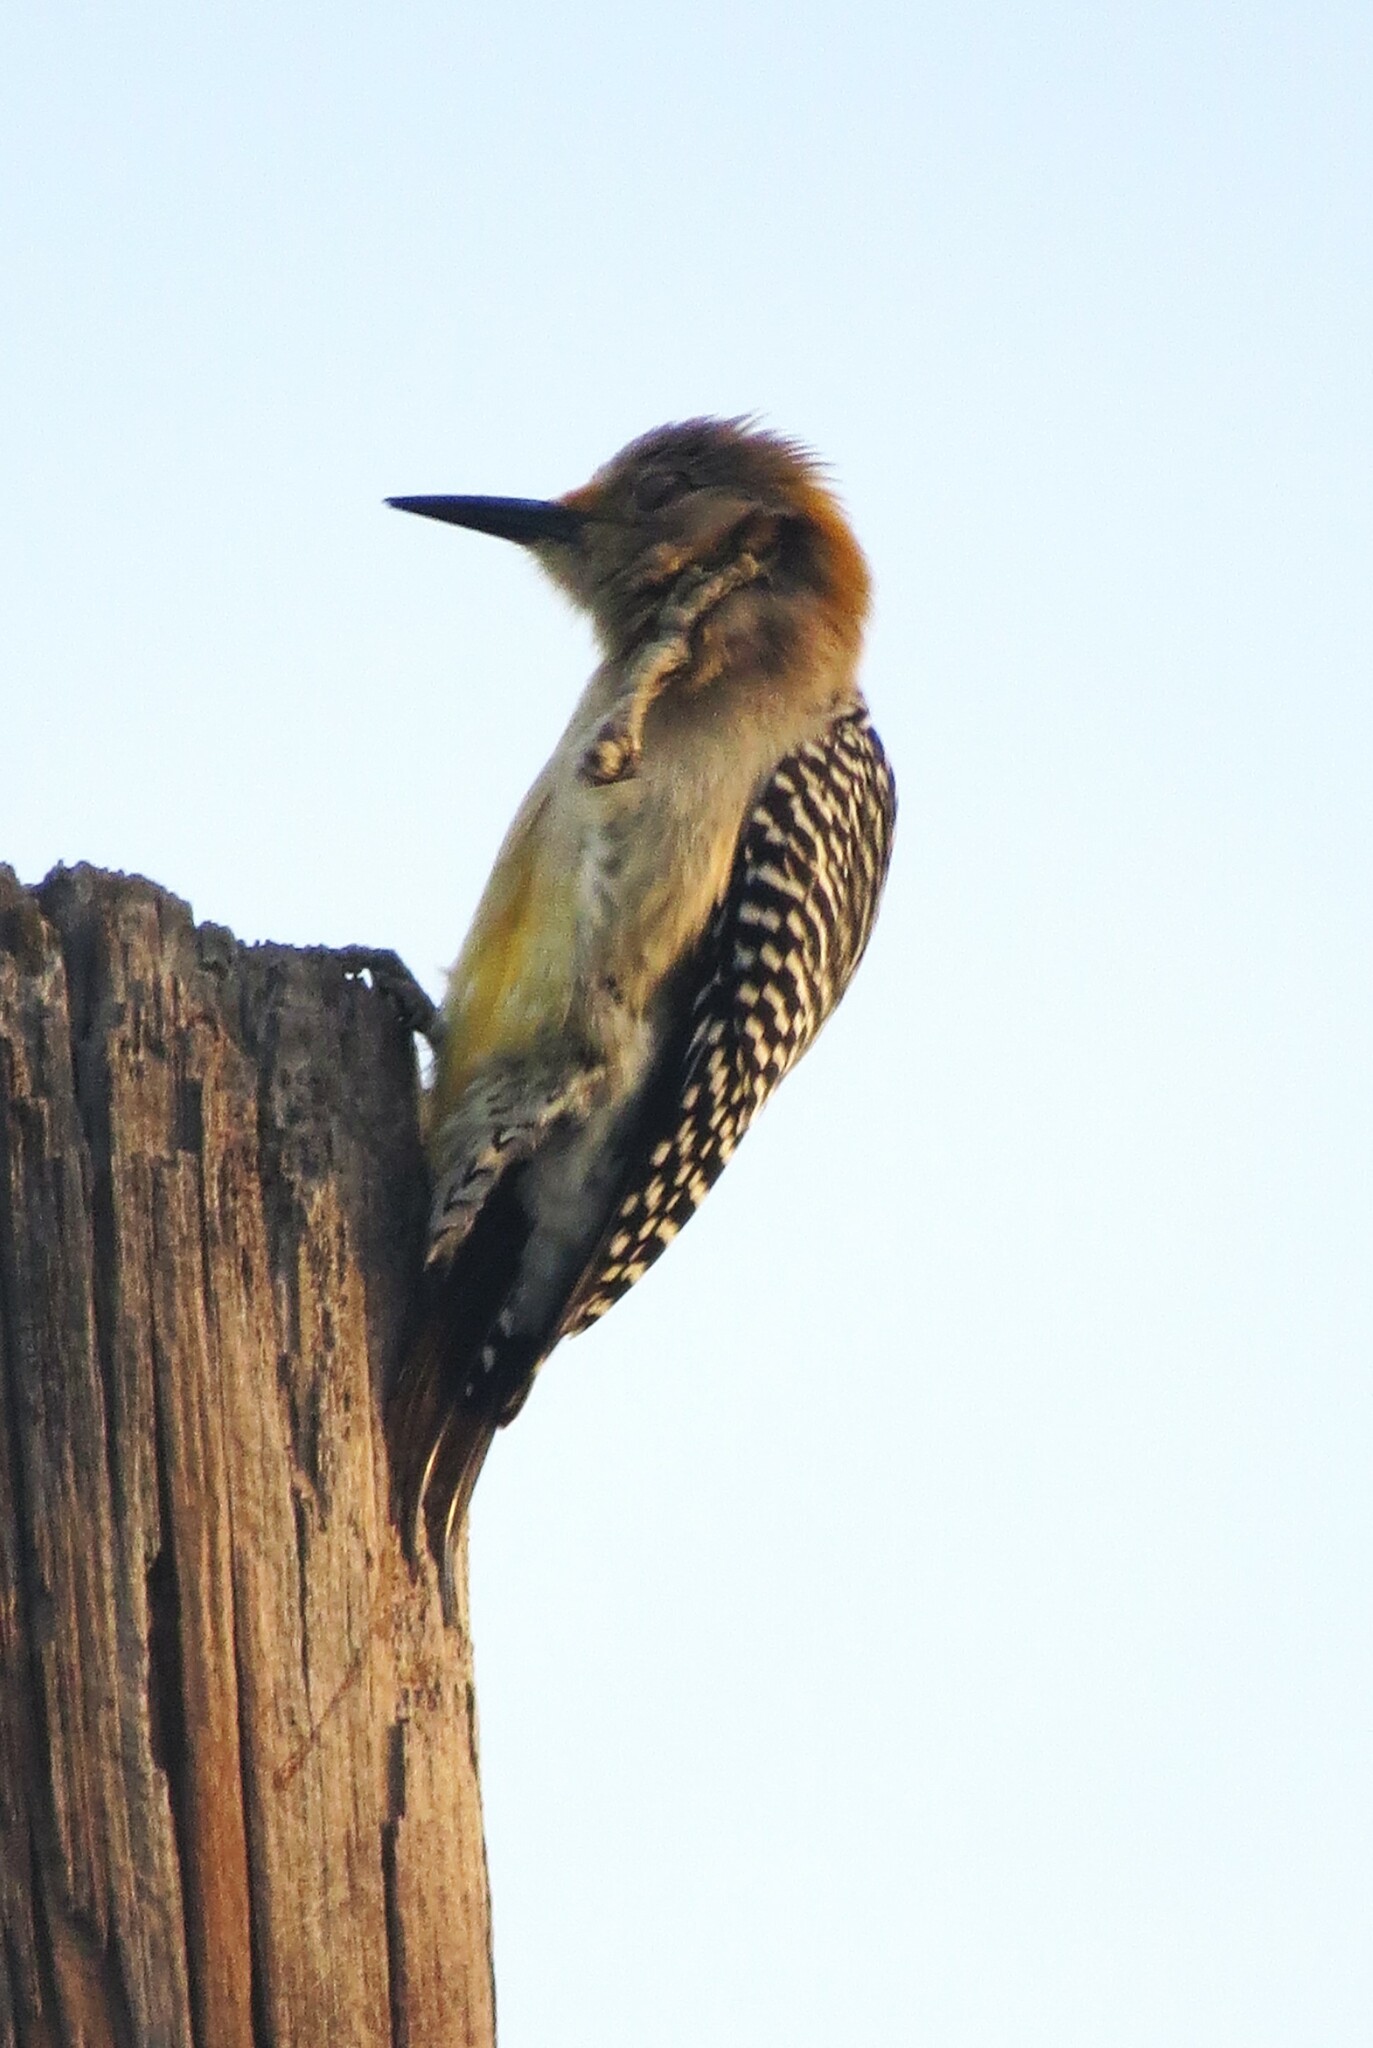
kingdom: Animalia
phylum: Chordata
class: Aves
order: Piciformes
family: Picidae
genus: Melanerpes
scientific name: Melanerpes aurifrons
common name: Golden-fronted woodpecker
